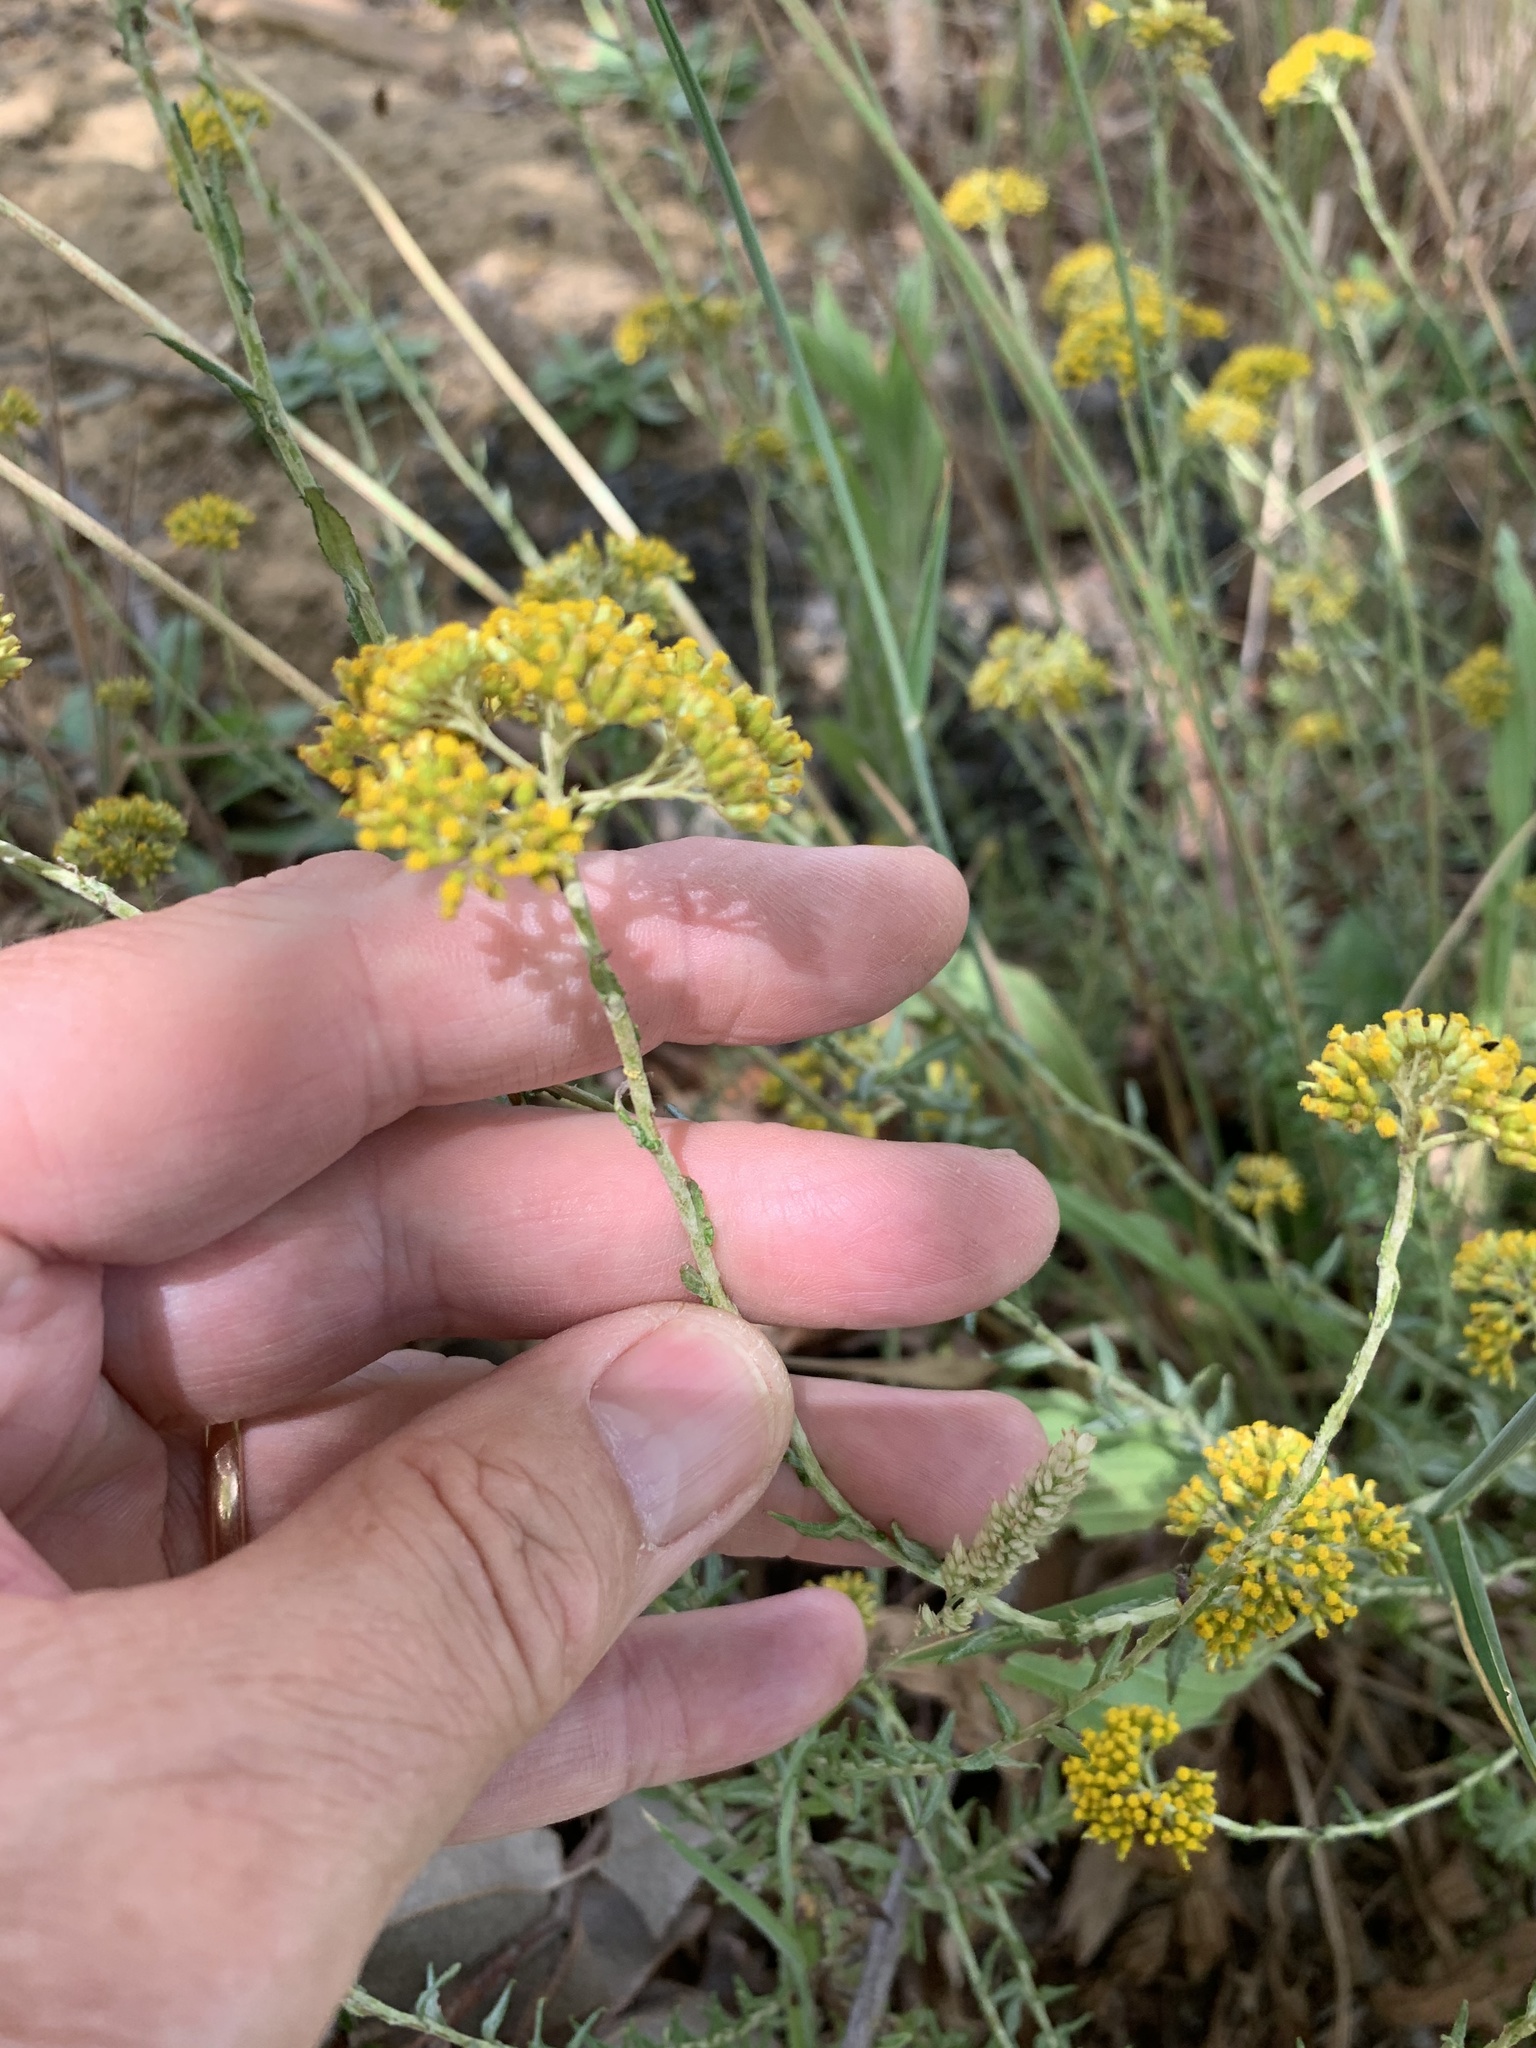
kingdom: Plantae
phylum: Tracheophyta
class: Magnoliopsida
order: Asterales
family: Asteraceae
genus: Helichrysum
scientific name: Helichrysum cymosum
